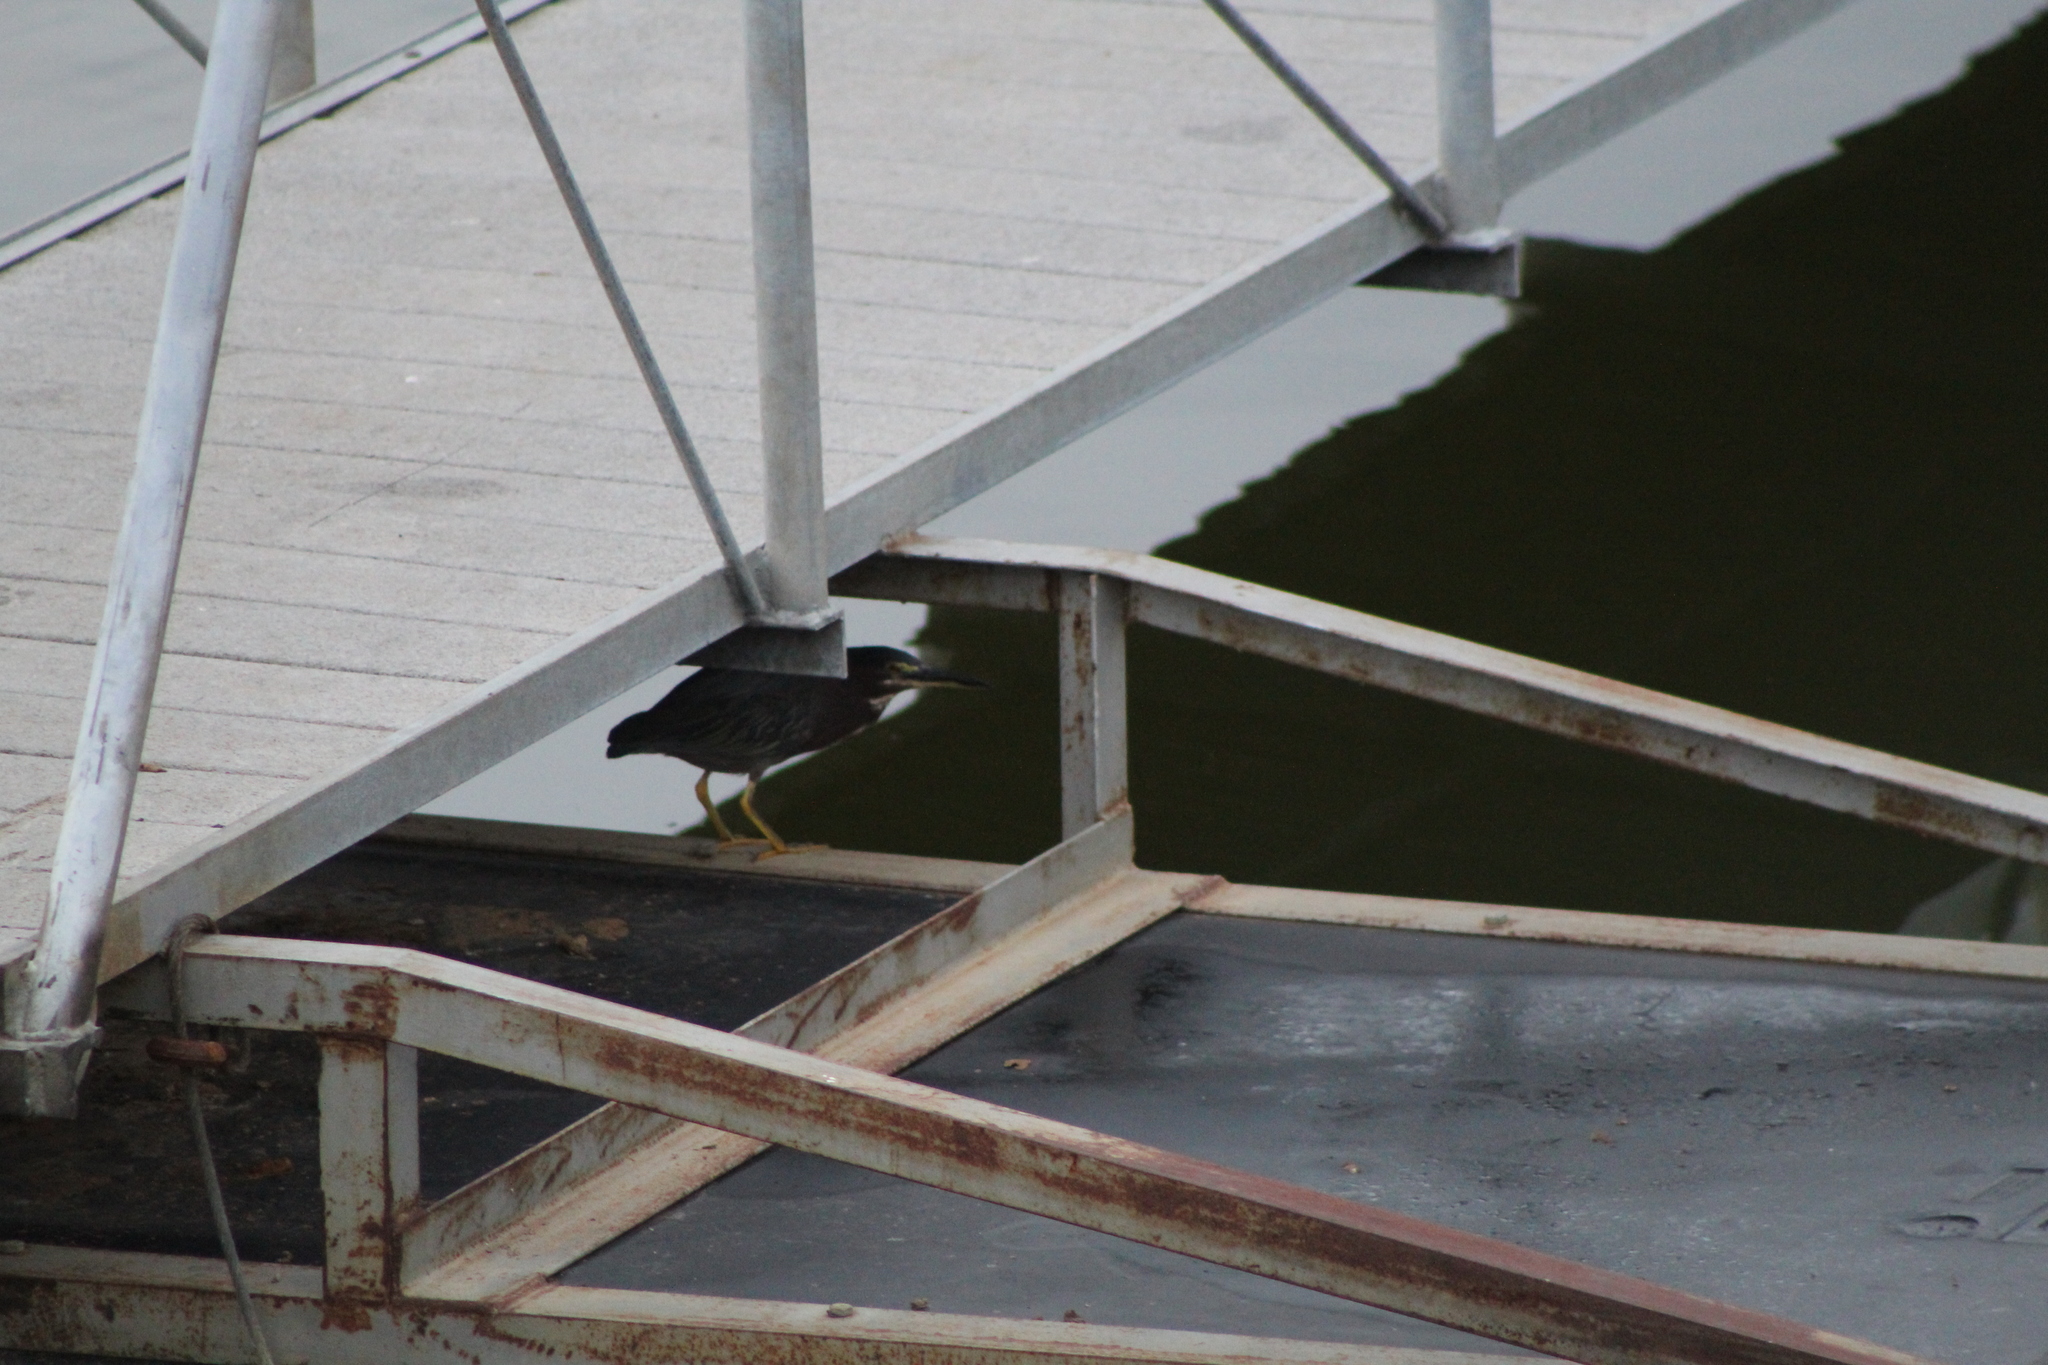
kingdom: Animalia
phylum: Chordata
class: Aves
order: Pelecaniformes
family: Ardeidae
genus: Butorides
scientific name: Butorides virescens
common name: Green heron
